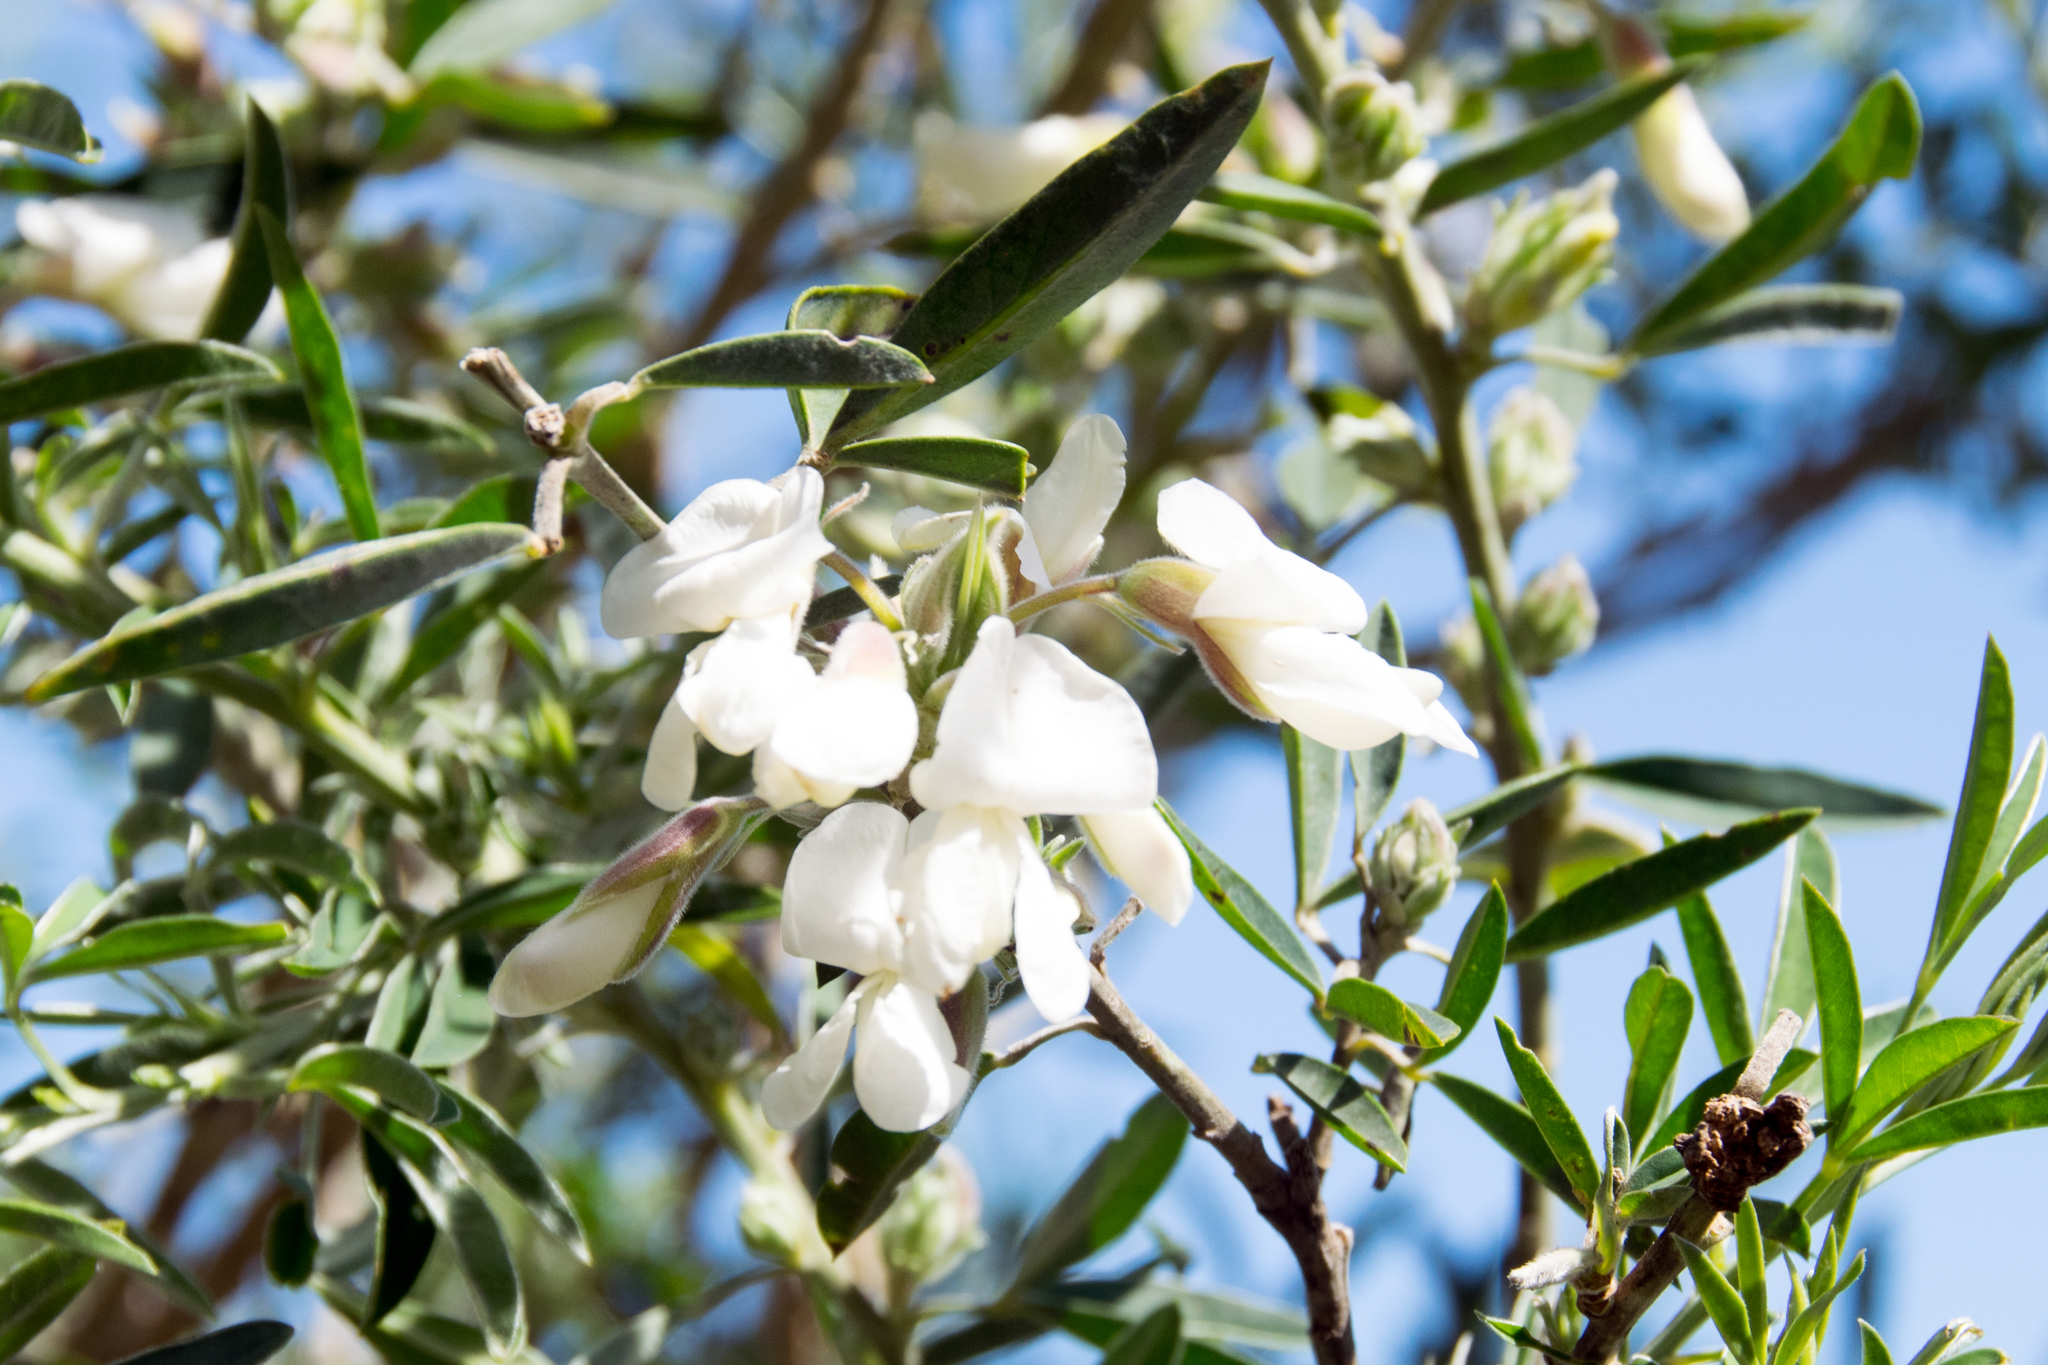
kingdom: Plantae
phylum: Tracheophyta
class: Magnoliopsida
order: Fabales
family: Fabaceae
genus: Chamaecytisus
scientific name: Chamaecytisus prolifer
